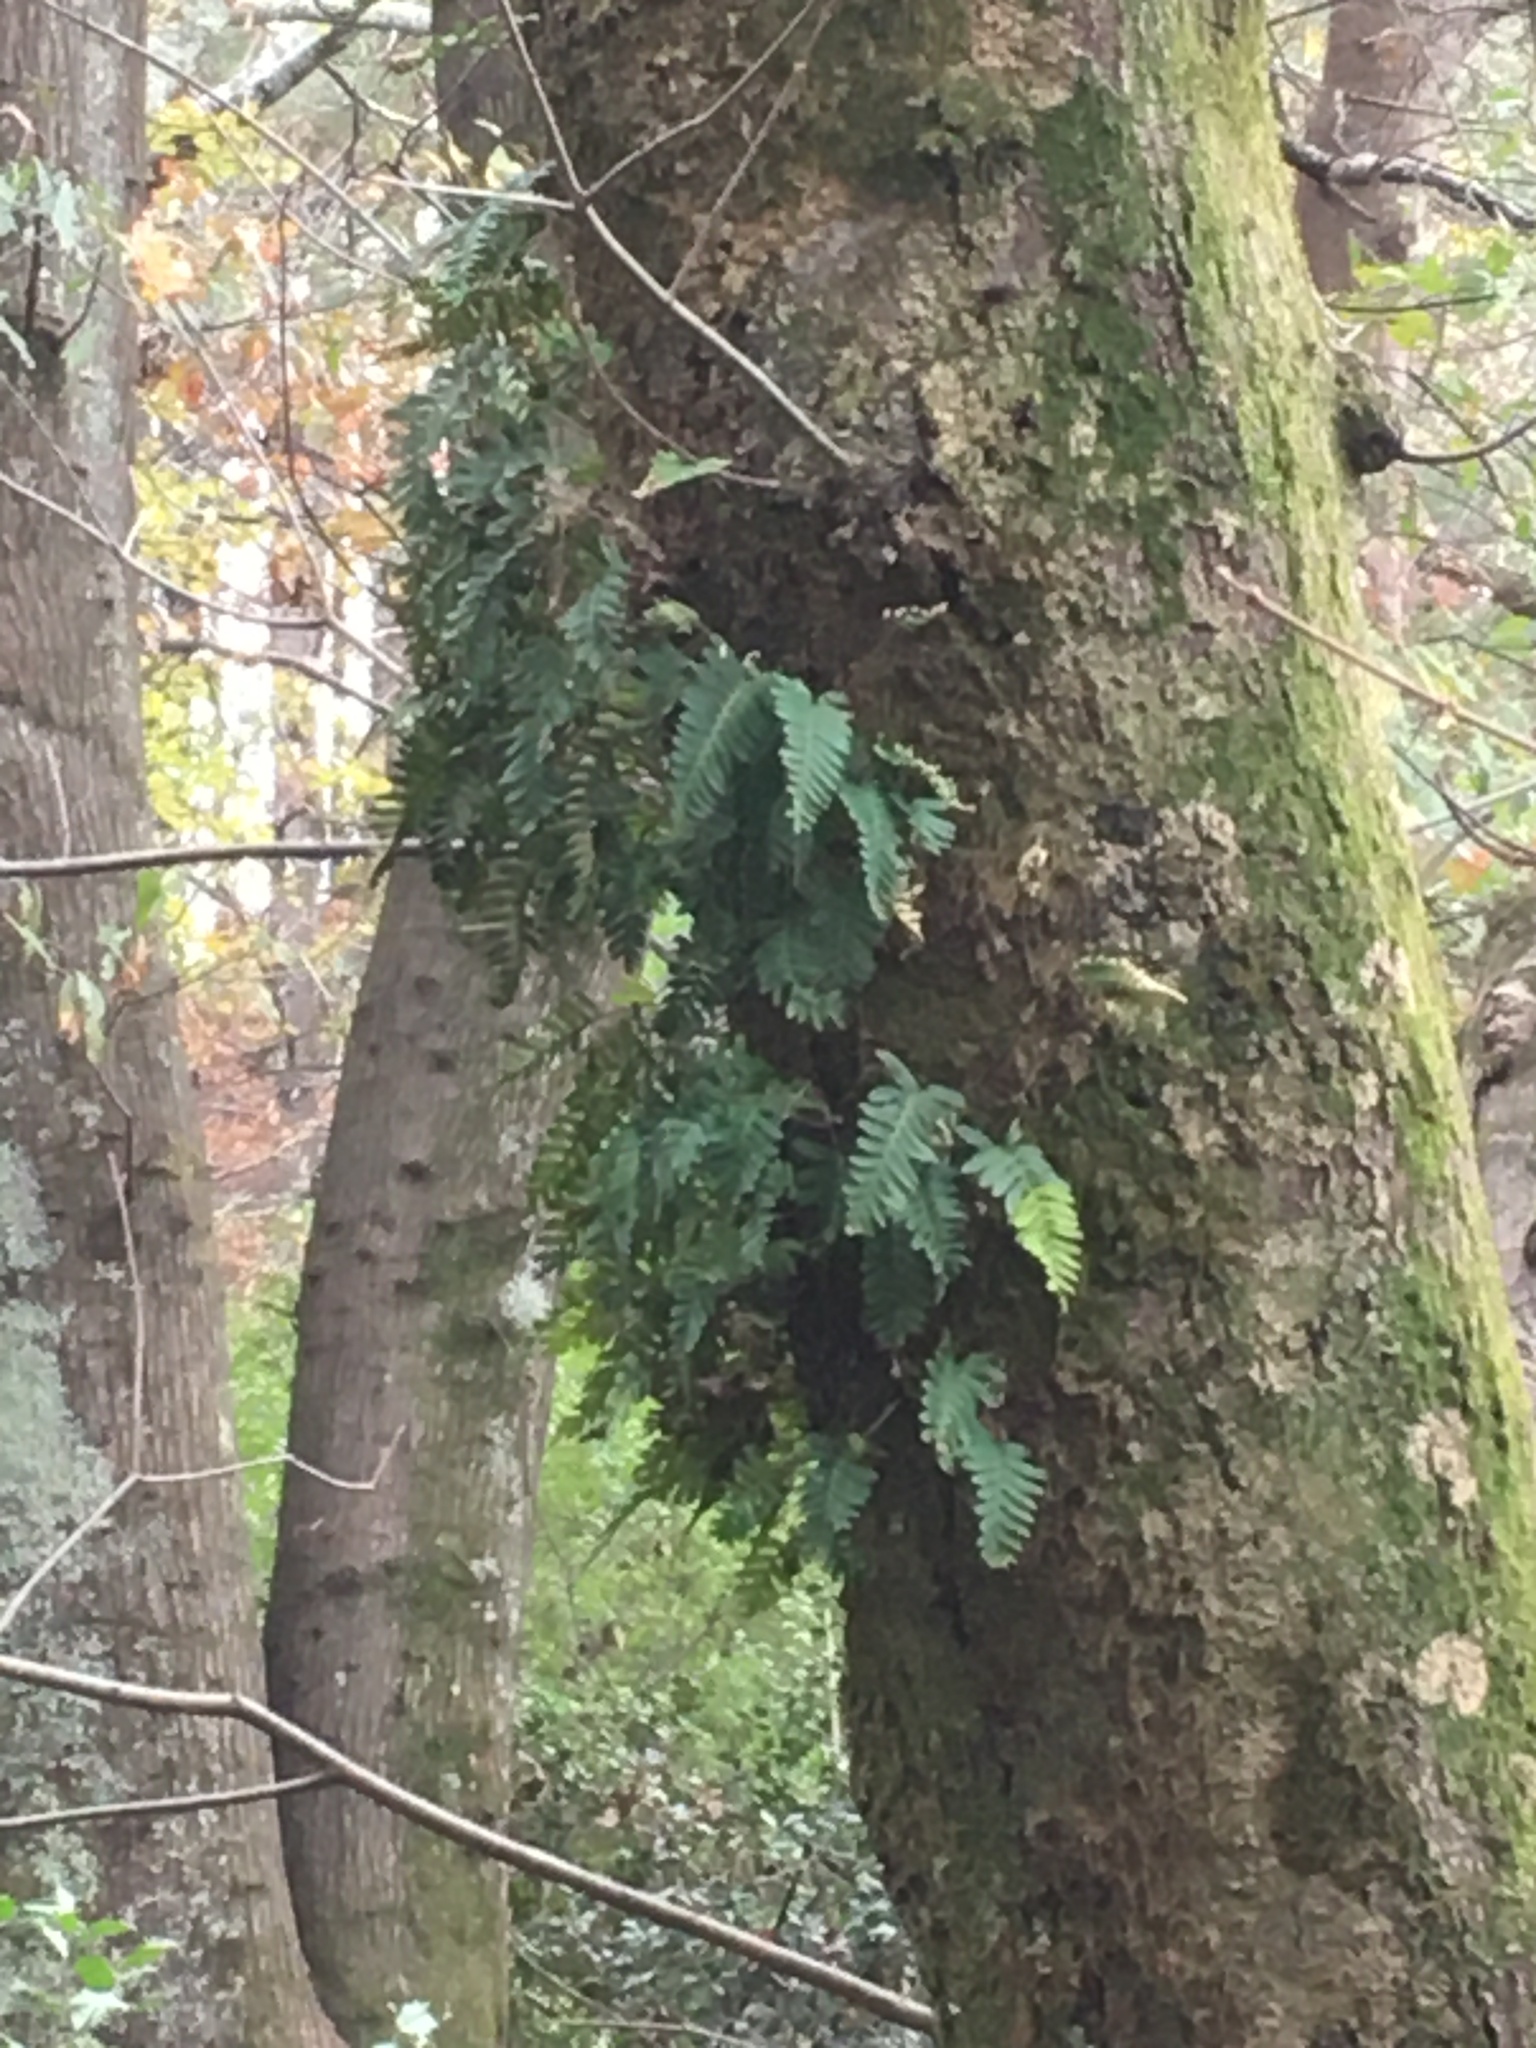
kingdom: Plantae
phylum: Tracheophyta
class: Polypodiopsida
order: Polypodiales
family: Polypodiaceae
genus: Pleopeltis
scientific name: Pleopeltis michauxiana
